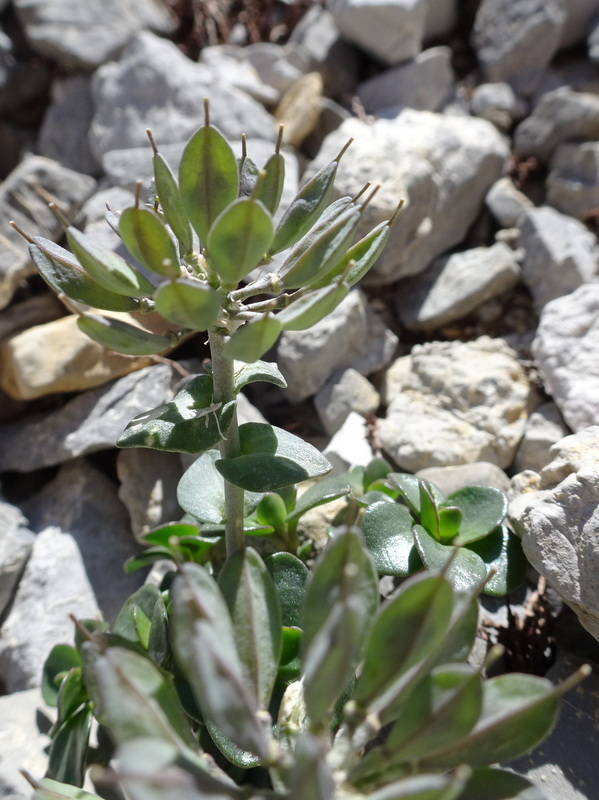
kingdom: Plantae
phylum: Tracheophyta
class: Magnoliopsida
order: Brassicales
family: Brassicaceae
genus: Noccaea
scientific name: Noccaea rotundifolia
